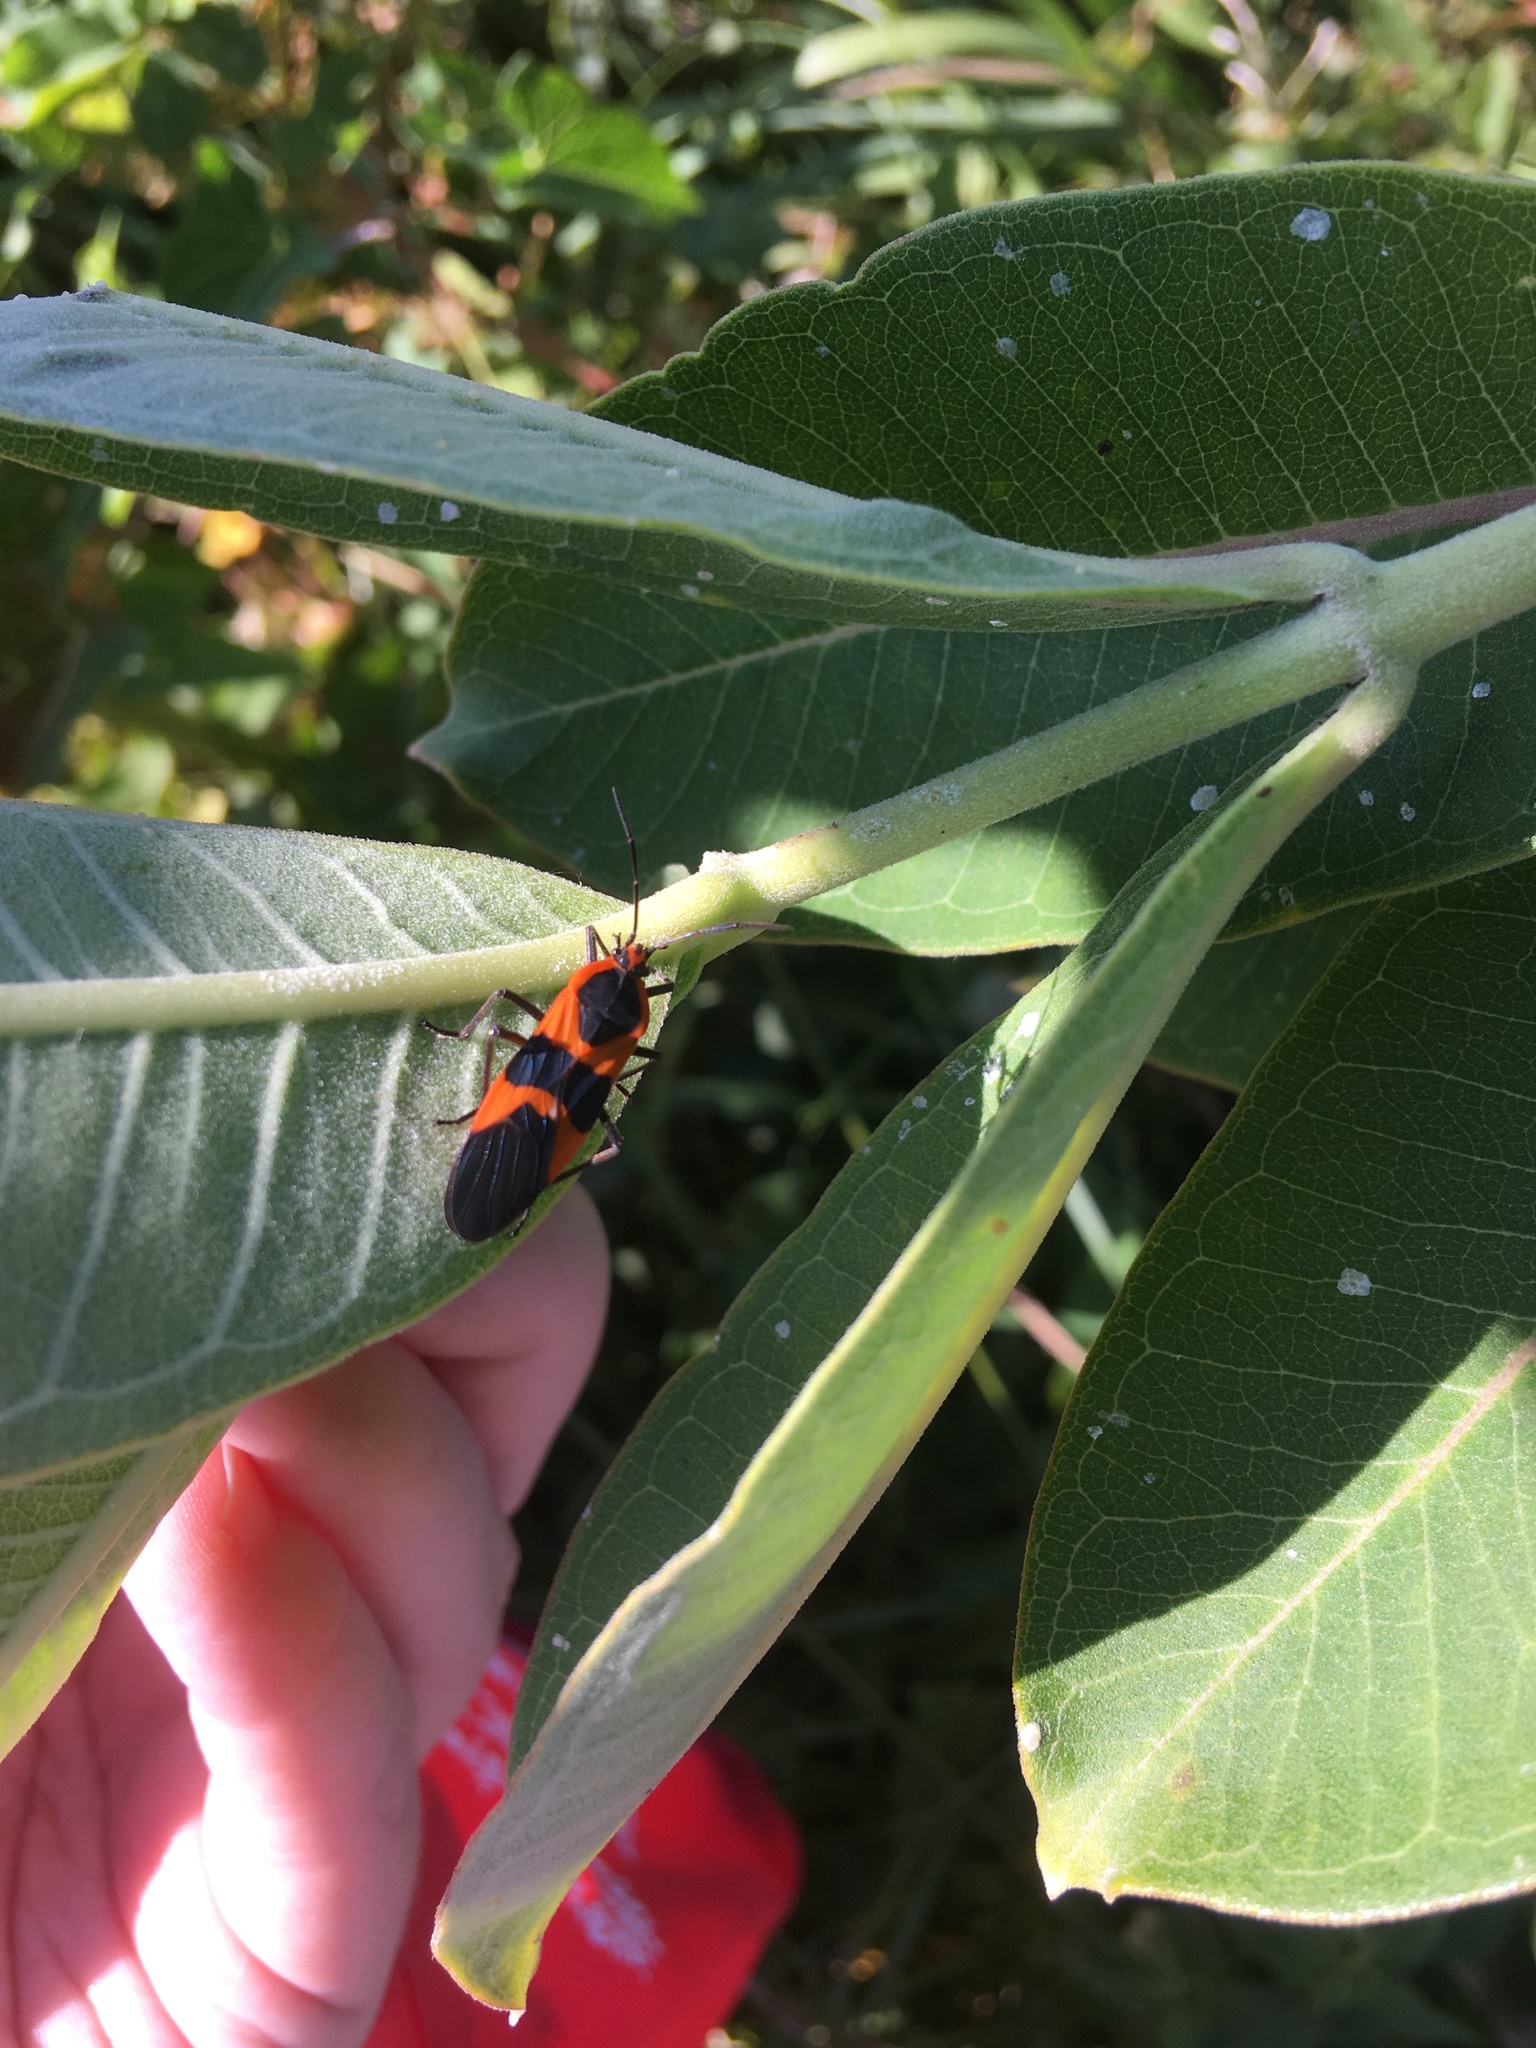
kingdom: Animalia
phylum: Arthropoda
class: Insecta
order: Hemiptera
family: Lygaeidae
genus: Oncopeltus
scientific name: Oncopeltus fasciatus
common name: Large milkweed bug
